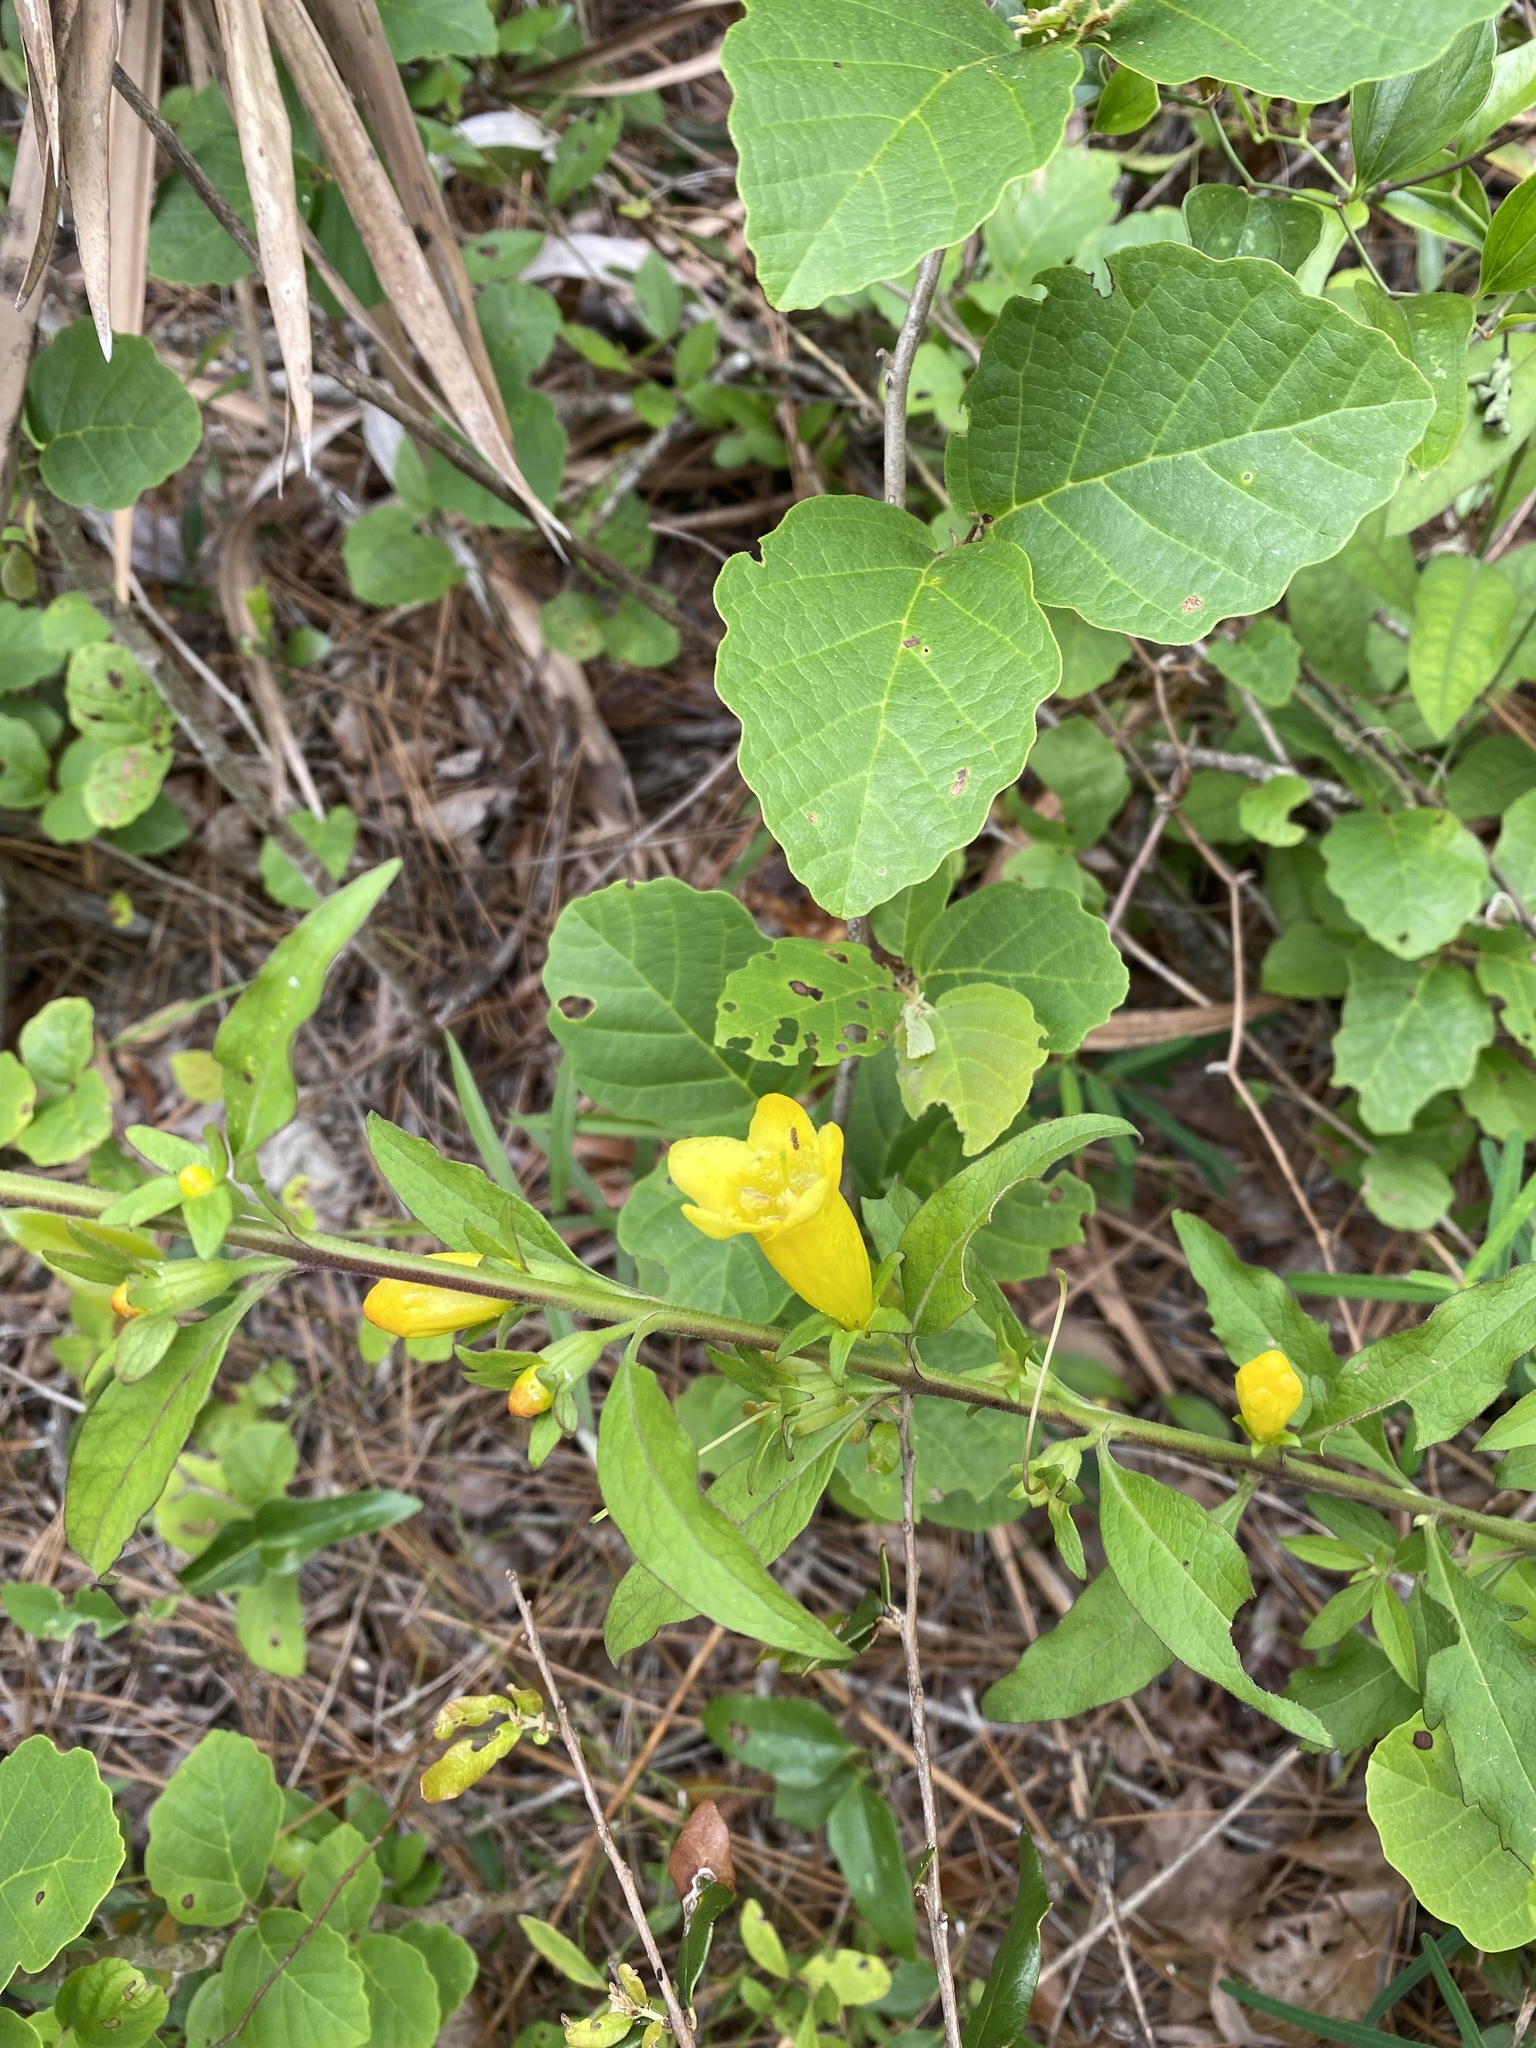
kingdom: Plantae
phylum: Tracheophyta
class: Magnoliopsida
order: Lamiales
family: Orobanchaceae
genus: Aureolaria
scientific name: Aureolaria virginica
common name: Downy false foxglove
